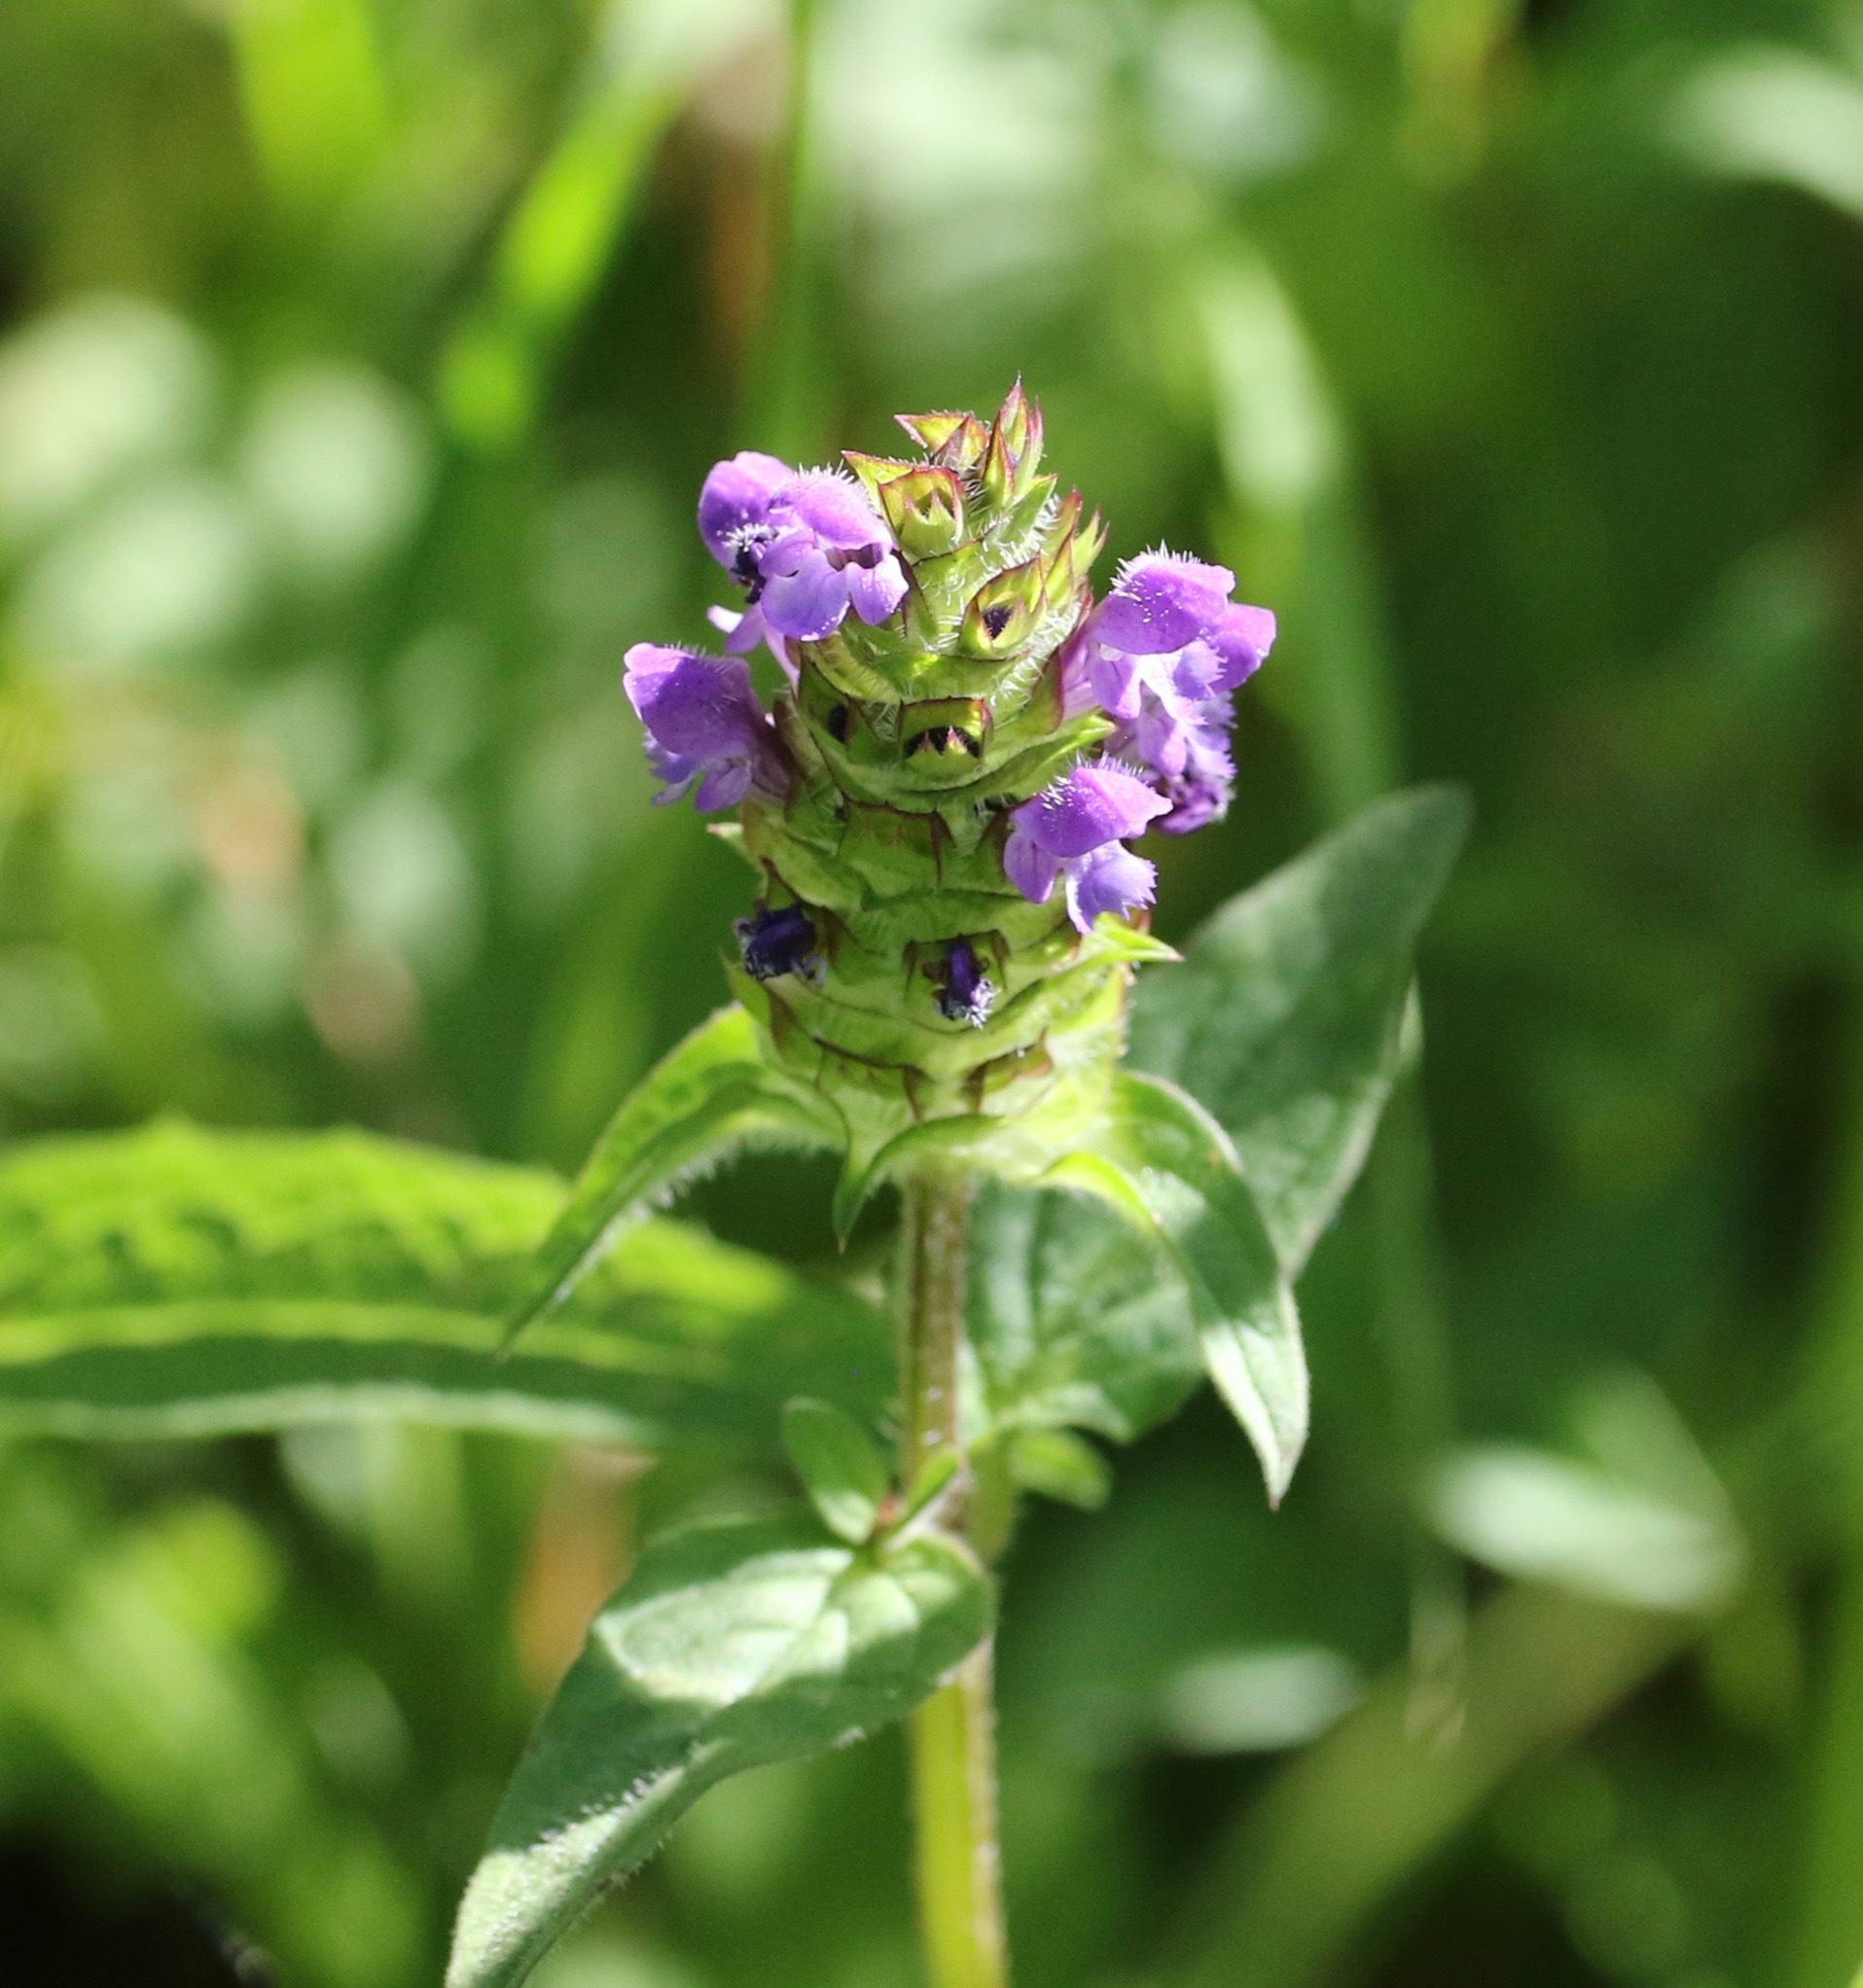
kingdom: Plantae
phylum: Tracheophyta
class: Magnoliopsida
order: Lamiales
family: Lamiaceae
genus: Prunella
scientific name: Prunella vulgaris
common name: Heal-all
